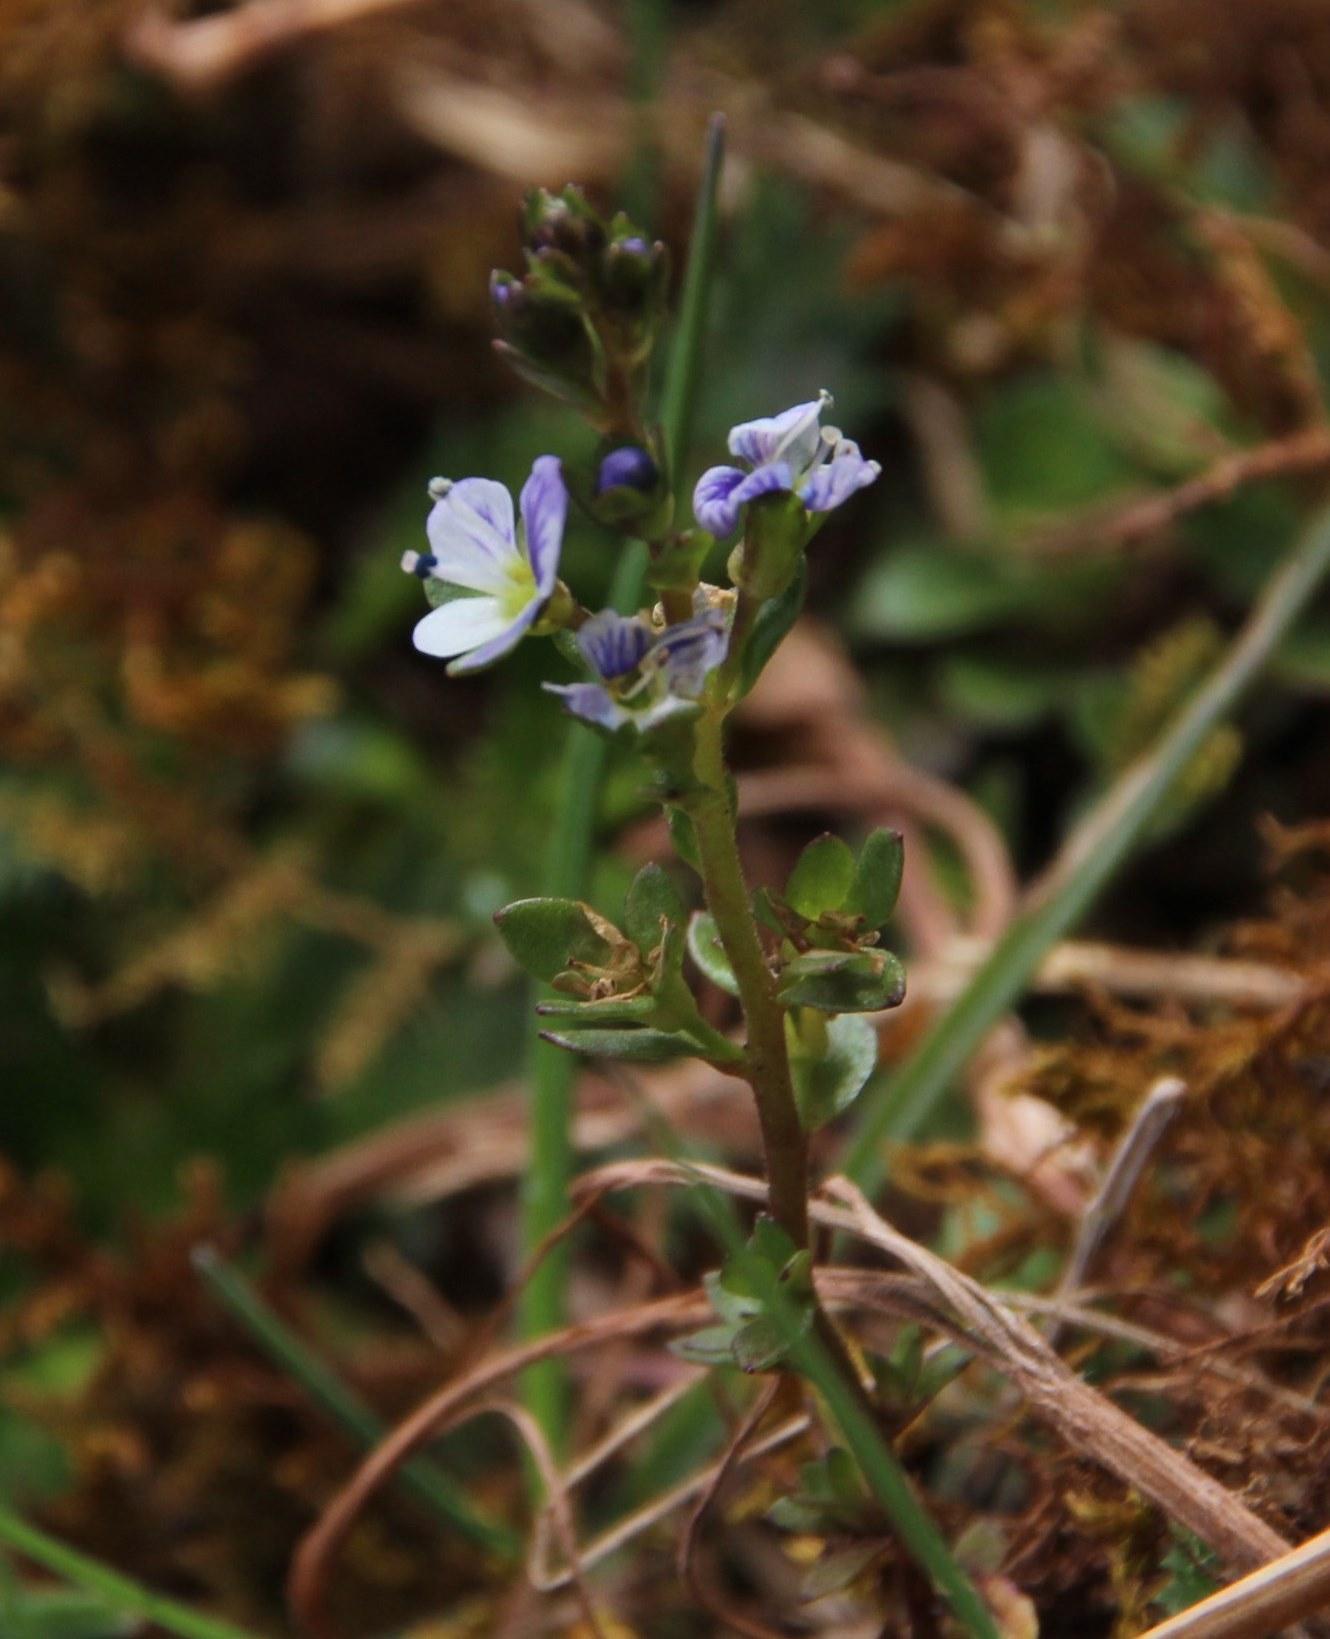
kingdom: Plantae
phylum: Tracheophyta
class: Magnoliopsida
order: Lamiales
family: Plantaginaceae
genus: Veronica
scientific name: Veronica serpyllifolia
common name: Thyme-leaved speedwell
